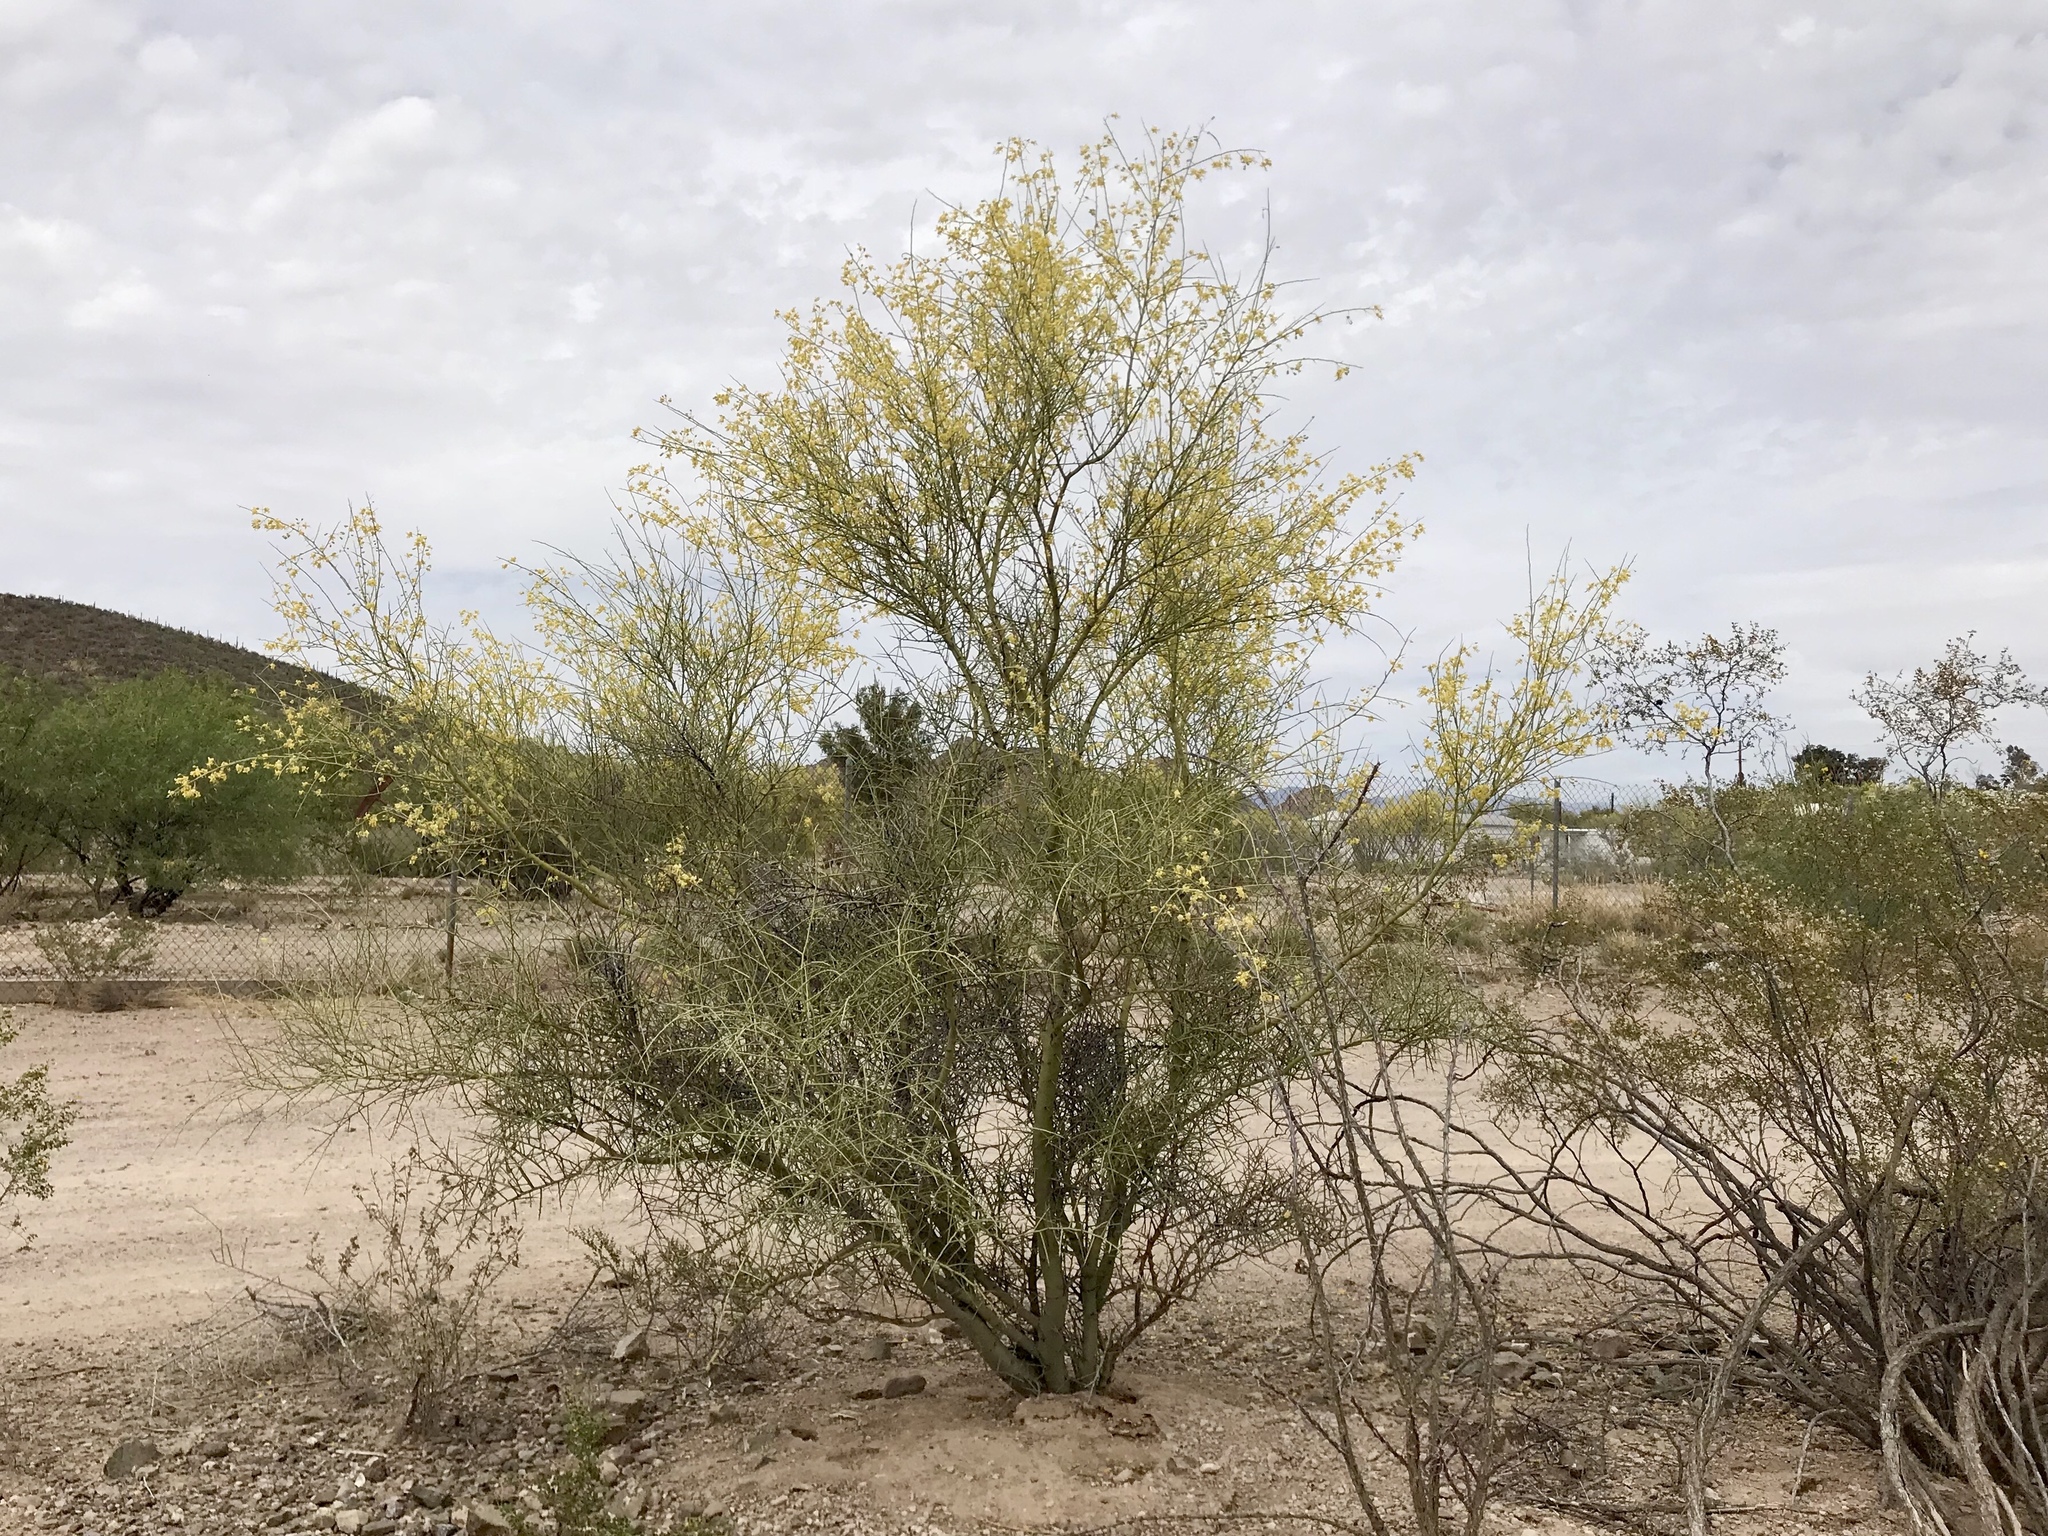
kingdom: Plantae
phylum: Tracheophyta
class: Magnoliopsida
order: Fabales
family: Fabaceae
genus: Parkinsonia
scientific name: Parkinsonia microphylla
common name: Yellow paloverde
